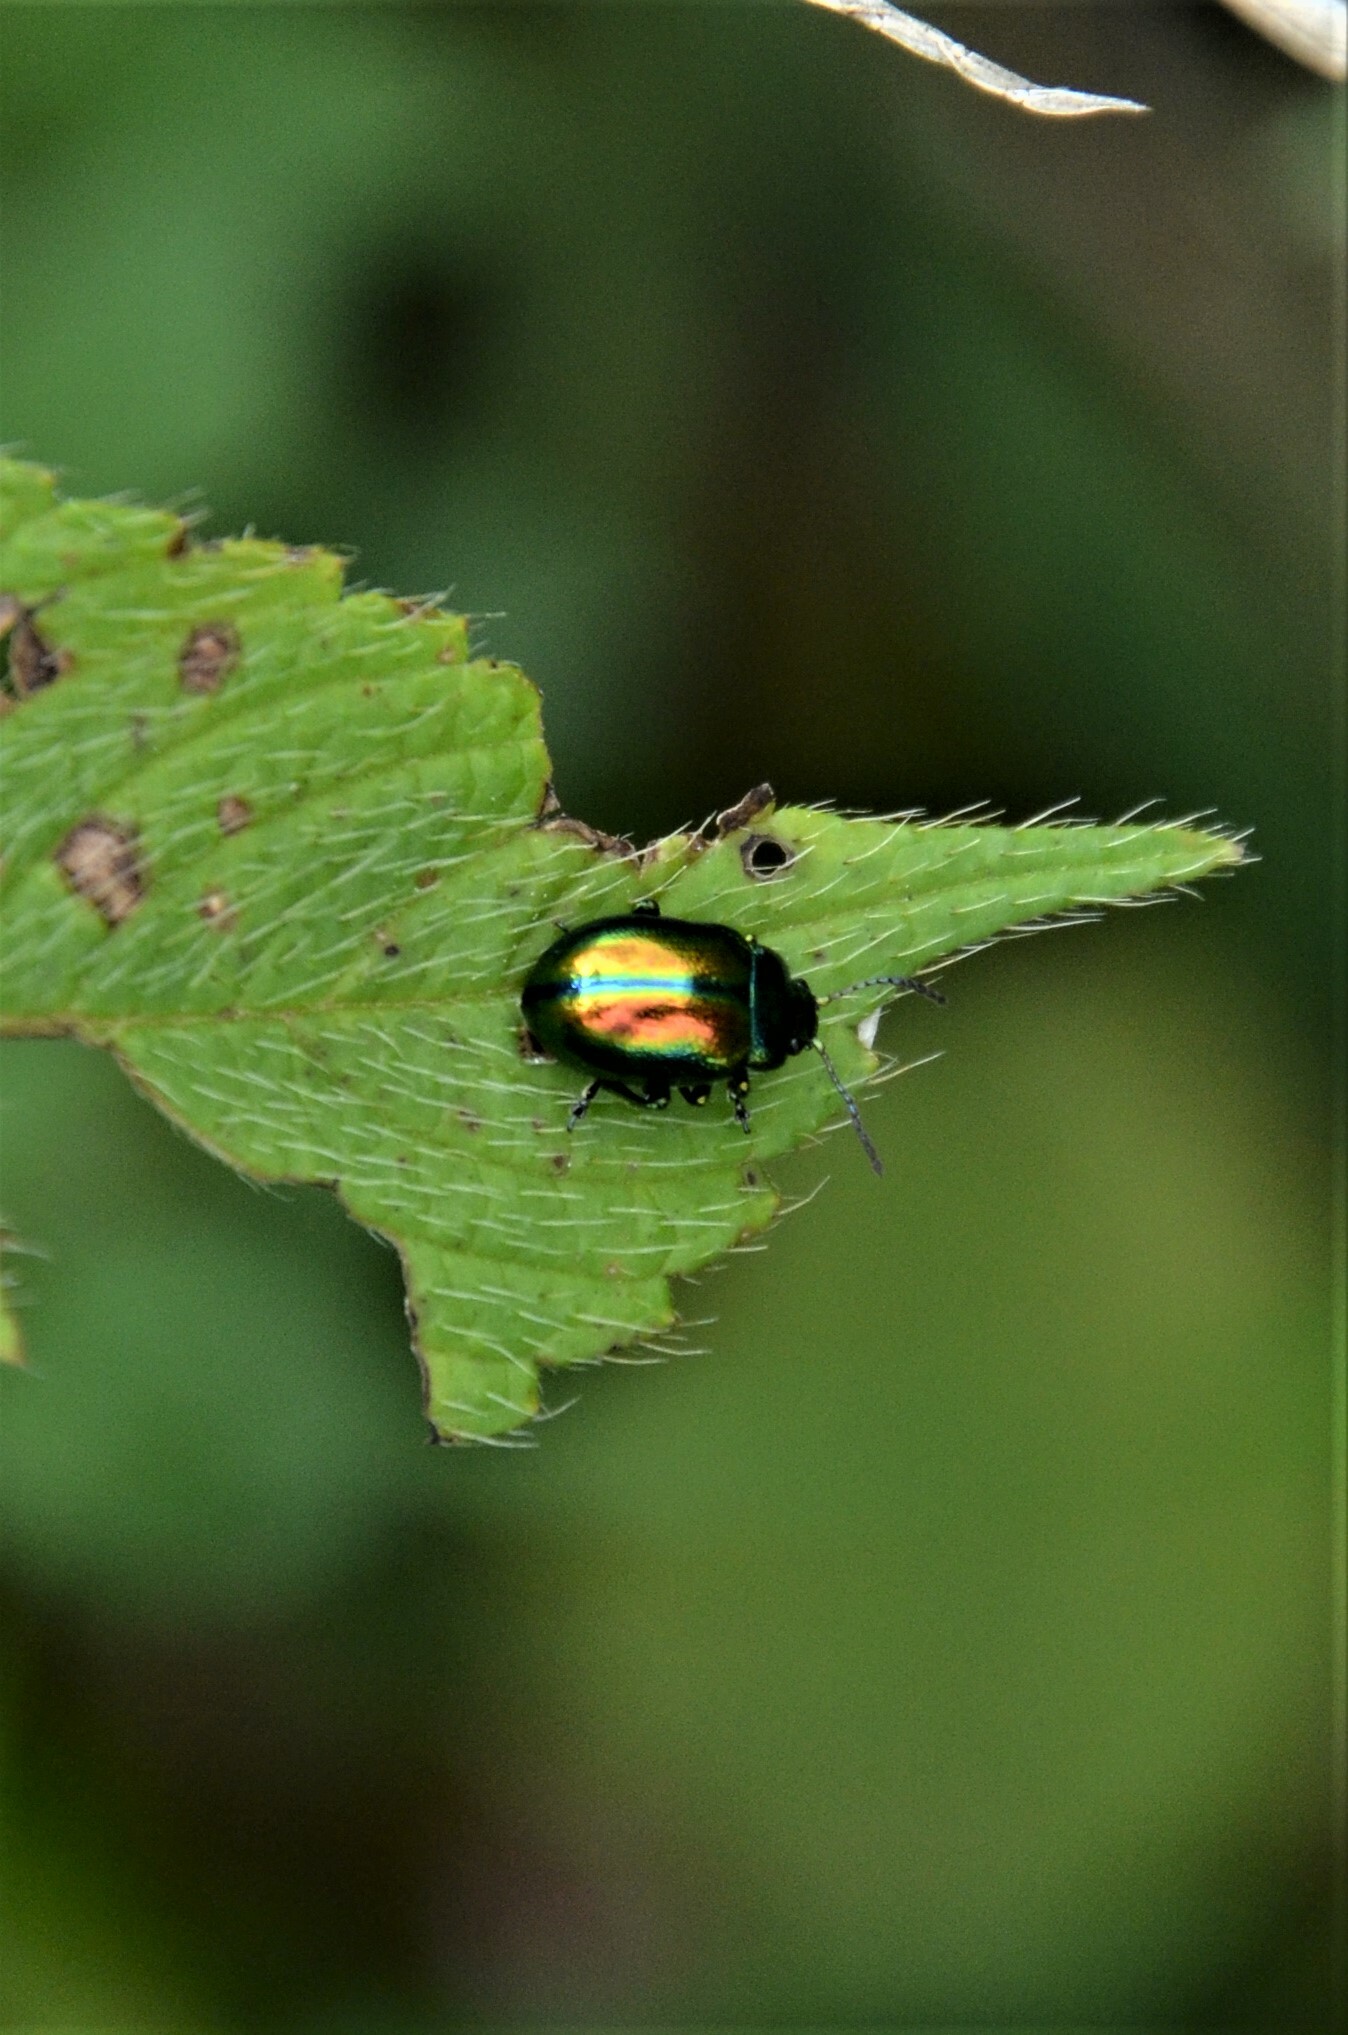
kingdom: Animalia
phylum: Arthropoda
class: Insecta
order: Coleoptera
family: Chrysomelidae
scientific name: Chrysomelidae
